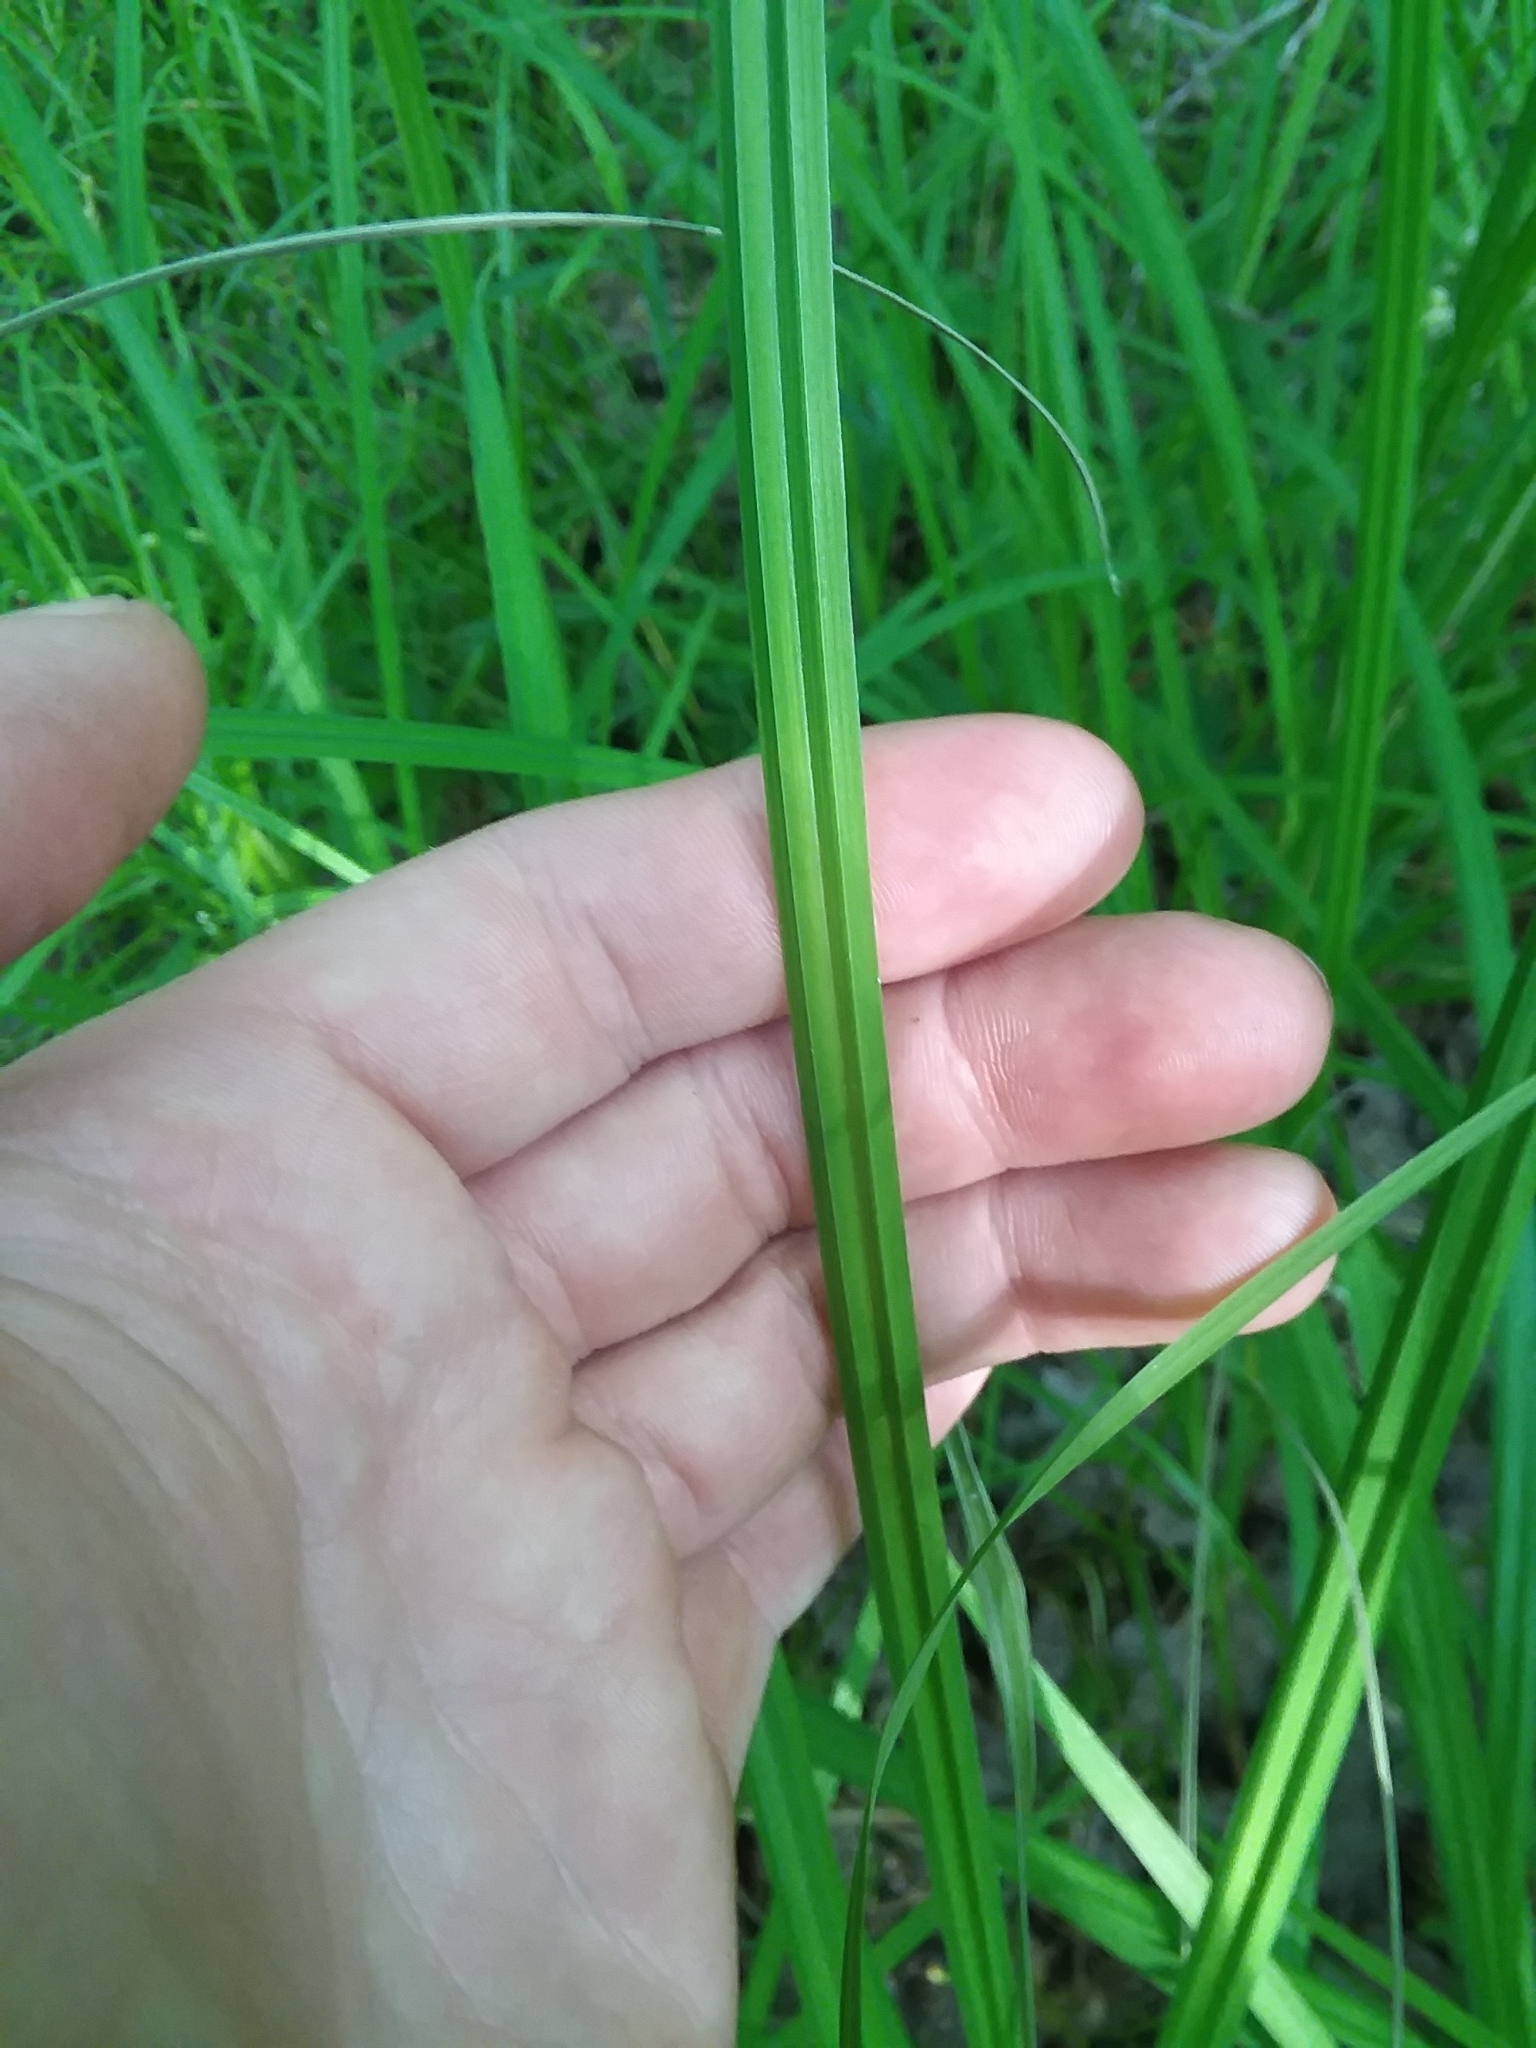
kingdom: Plantae
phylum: Tracheophyta
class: Liliopsida
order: Poales
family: Cyperaceae
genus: Carex
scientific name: Carex crinita
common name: Fringed sedge
